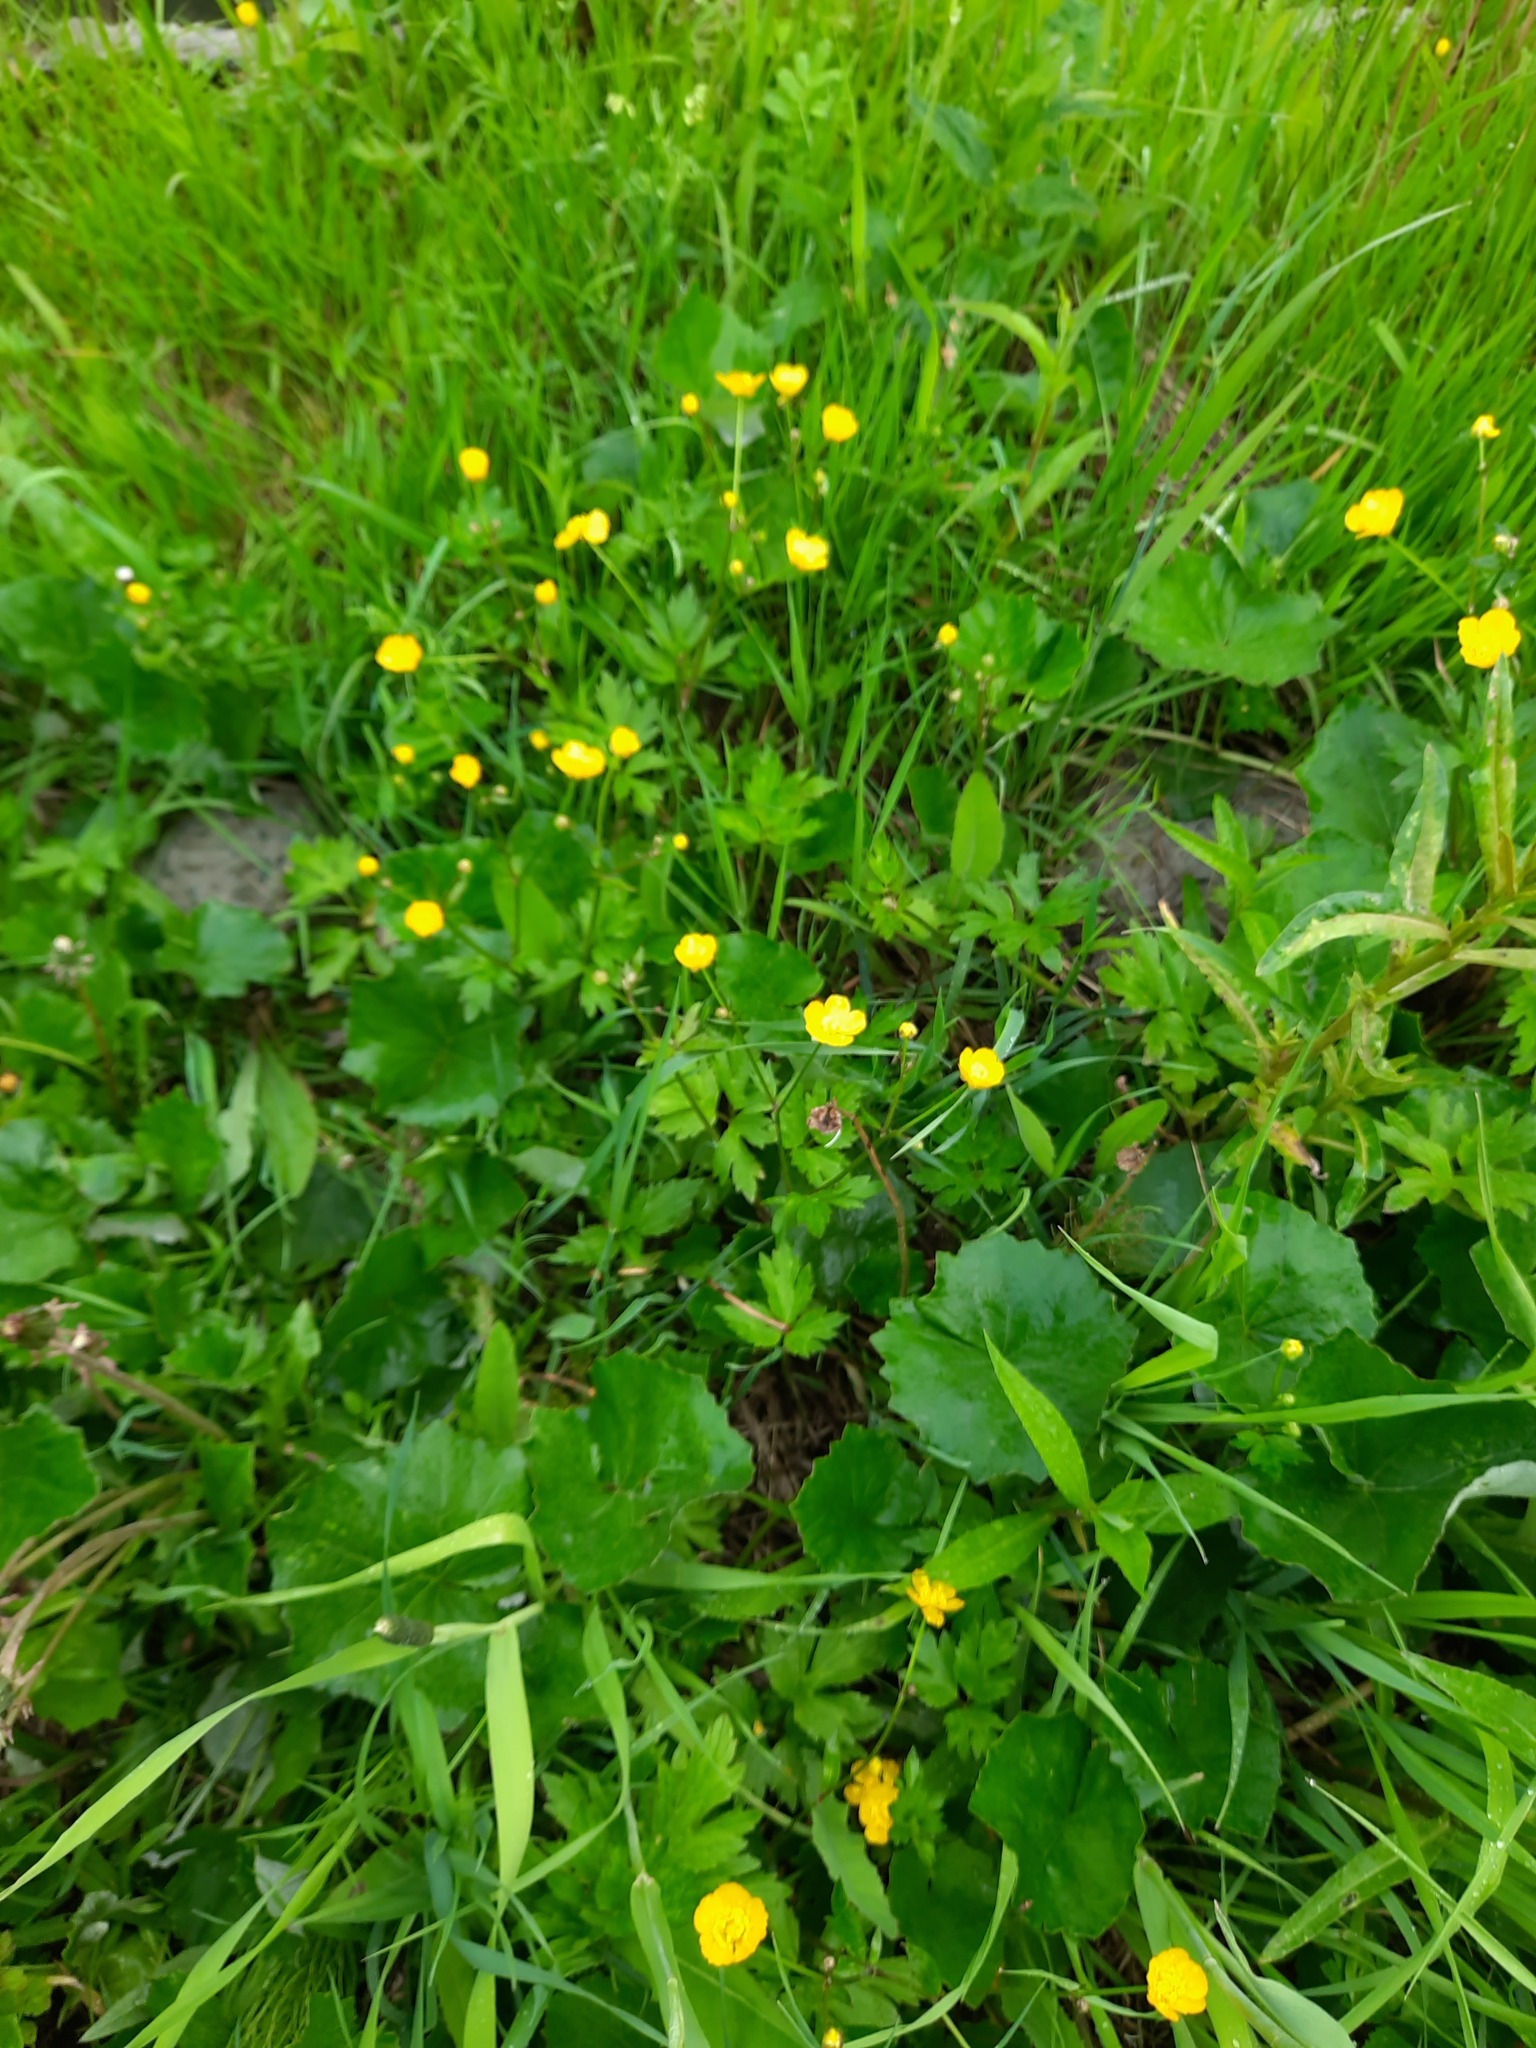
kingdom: Plantae
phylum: Tracheophyta
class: Magnoliopsida
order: Ranunculales
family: Ranunculaceae
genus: Ranunculus
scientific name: Ranunculus repens
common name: Creeping buttercup
